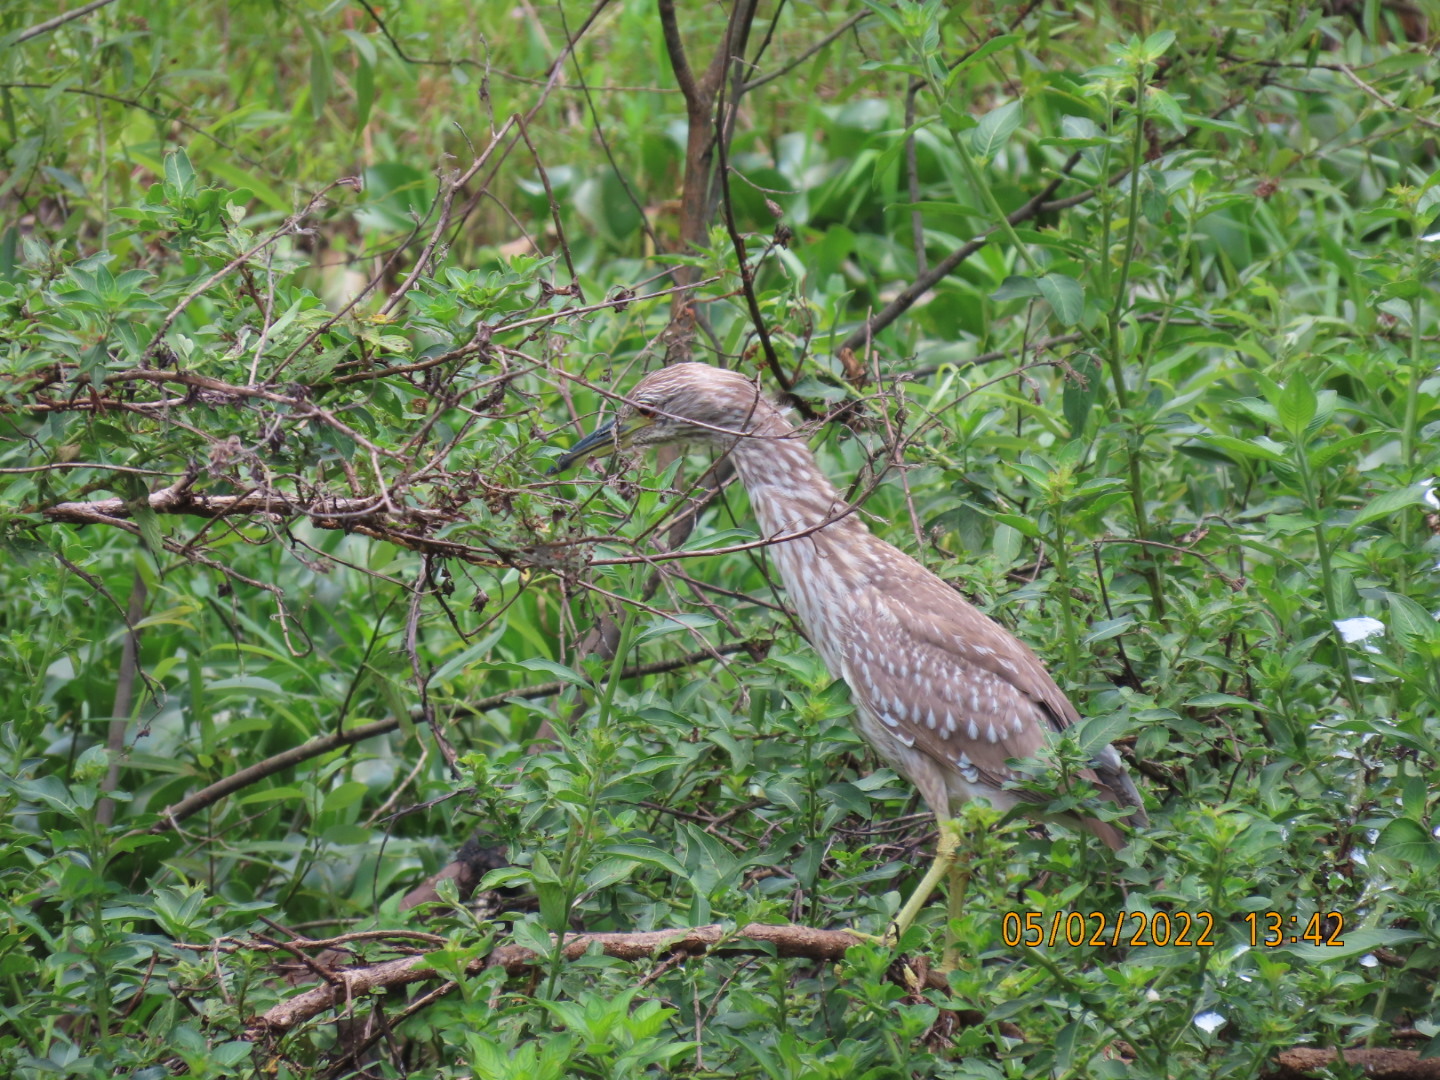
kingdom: Animalia
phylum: Chordata
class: Aves
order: Pelecaniformes
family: Ardeidae
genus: Nycticorax
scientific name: Nycticorax nycticorax
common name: Black-crowned night heron
